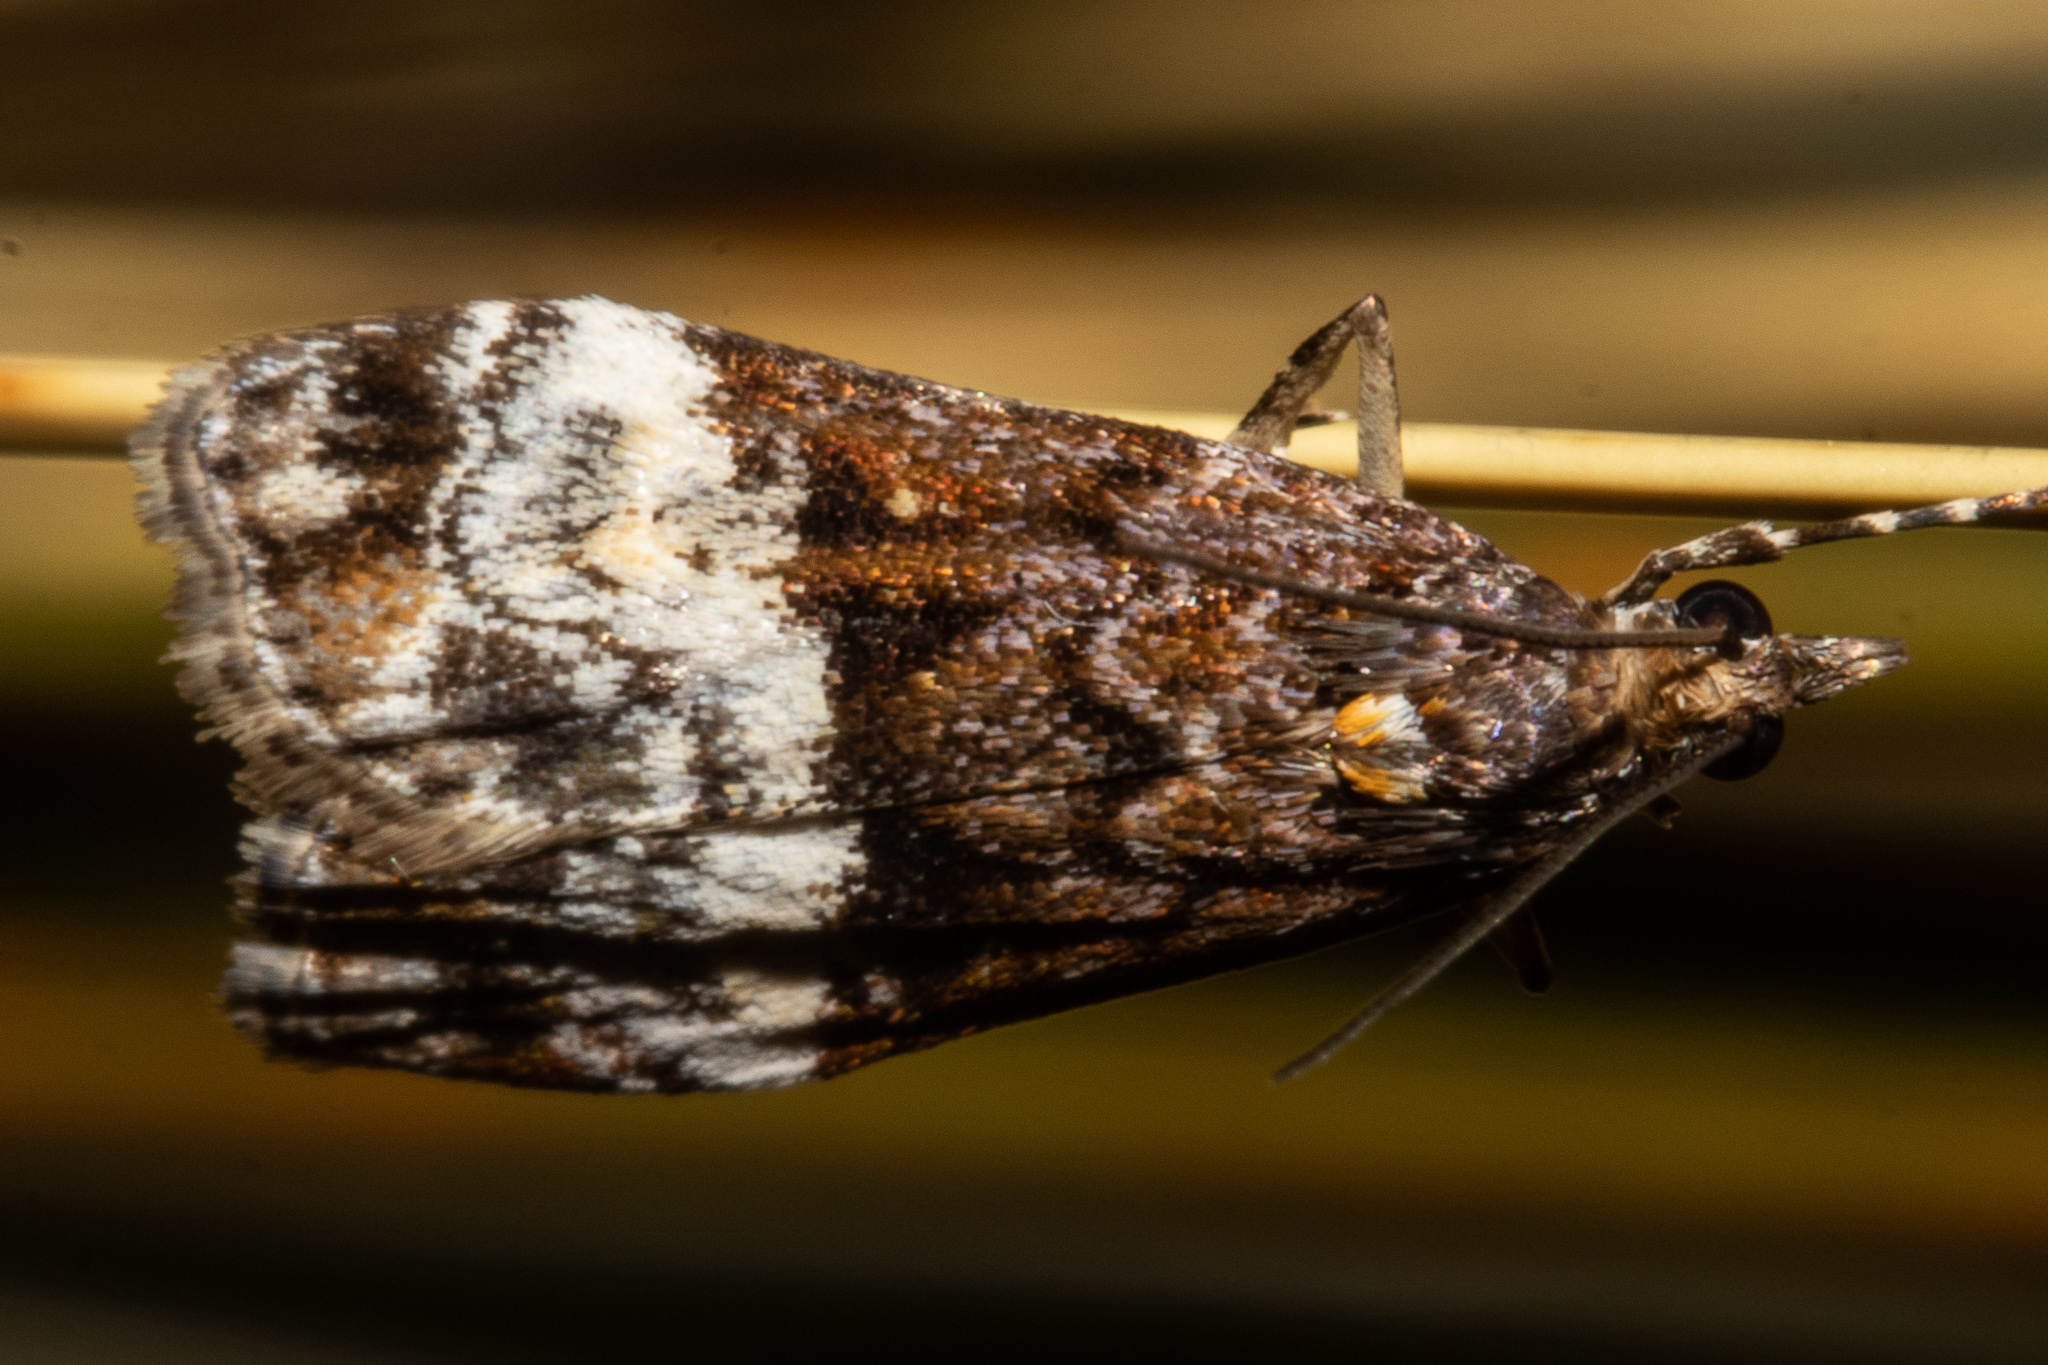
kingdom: Animalia
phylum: Arthropoda
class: Insecta
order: Lepidoptera
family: Crambidae
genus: Scoparia
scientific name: Scoparia minusculalis
